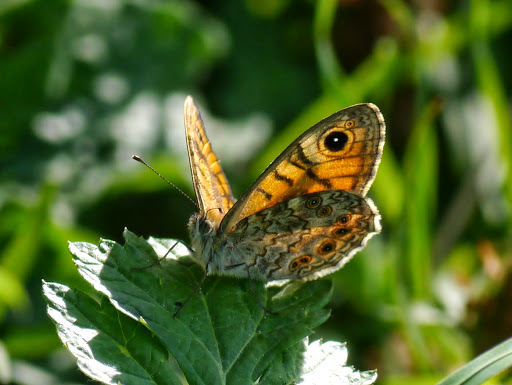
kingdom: Animalia
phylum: Arthropoda
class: Insecta
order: Lepidoptera
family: Nymphalidae
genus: Pararge
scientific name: Pararge Lasiommata megera
